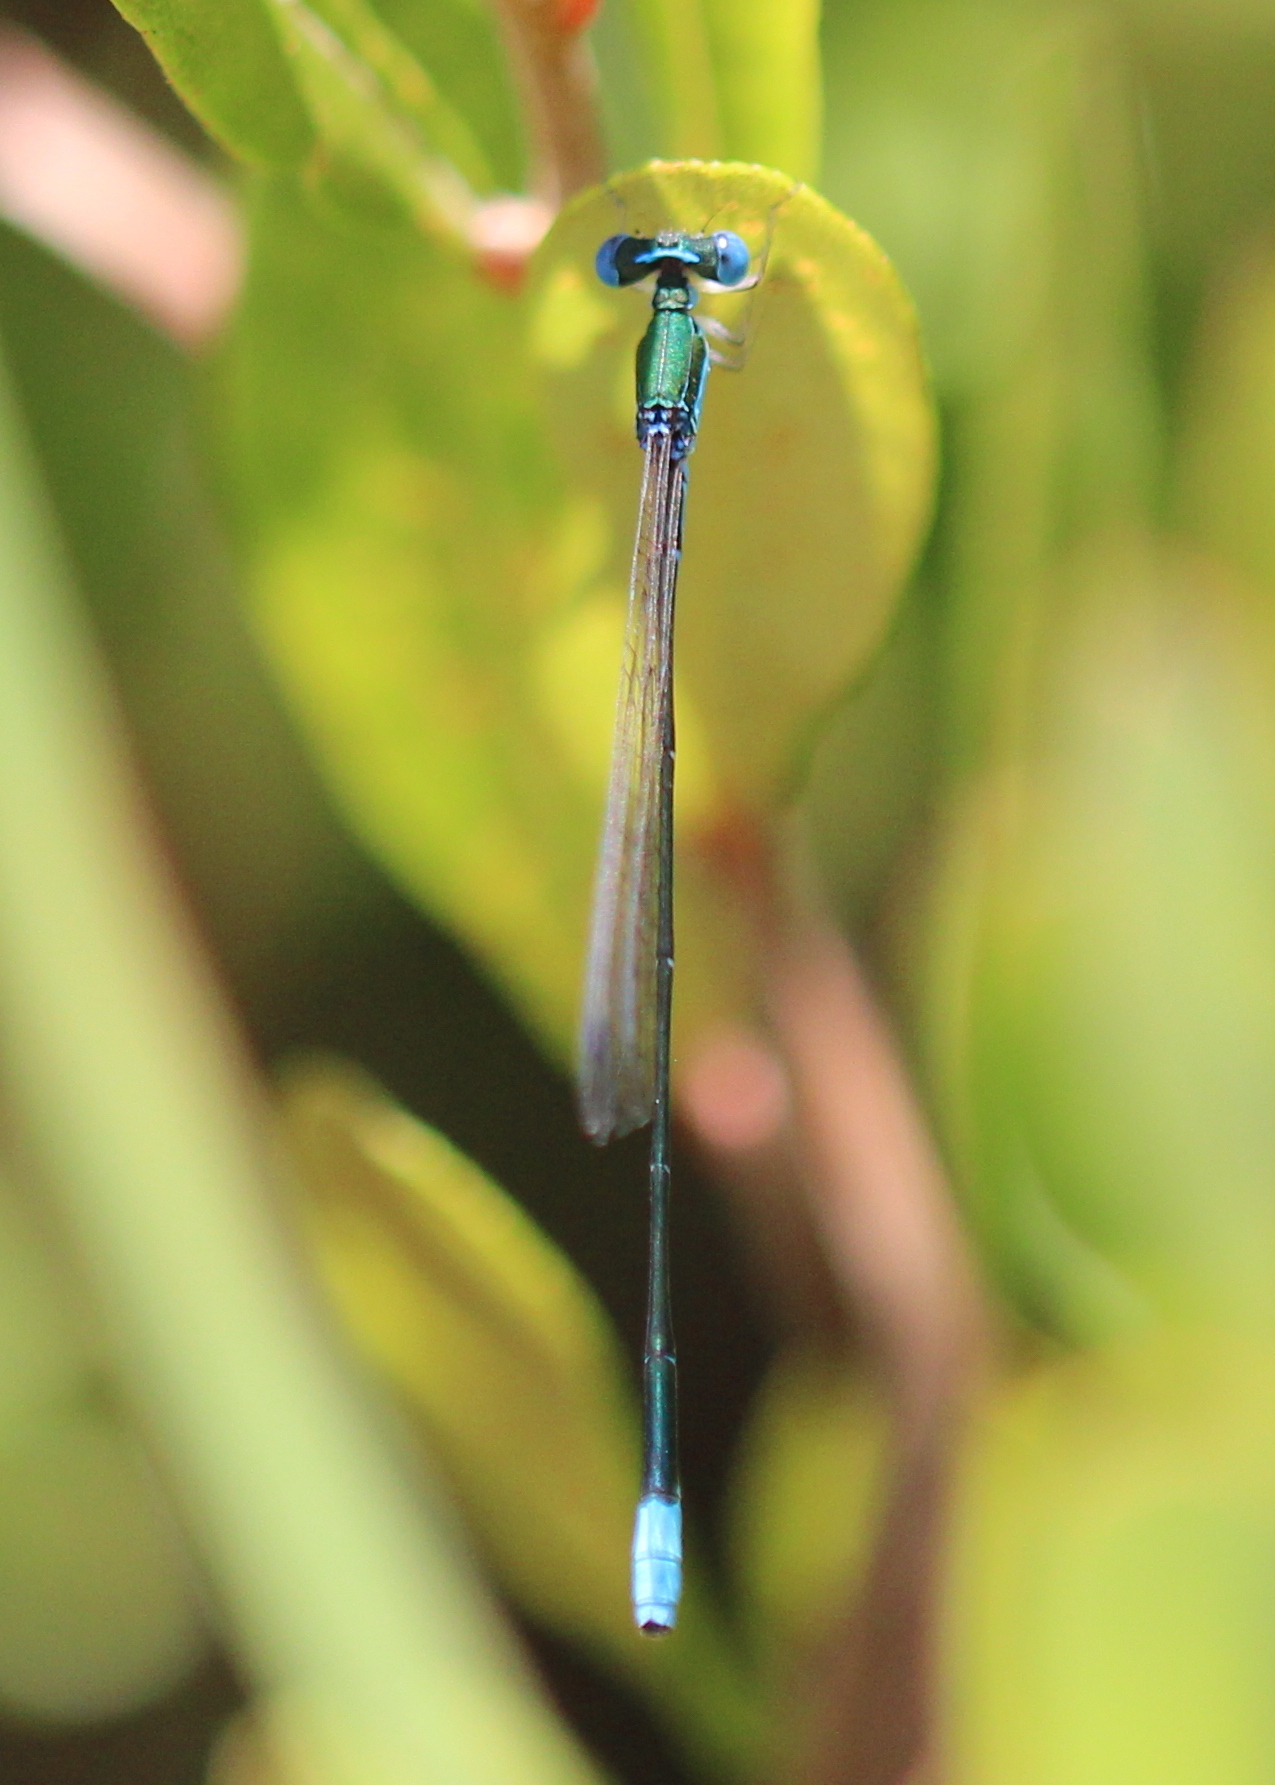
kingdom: Animalia
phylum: Arthropoda
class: Insecta
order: Odonata
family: Coenagrionidae
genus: Nehalennia
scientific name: Nehalennia gracilis
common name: Sphagnum sprite
